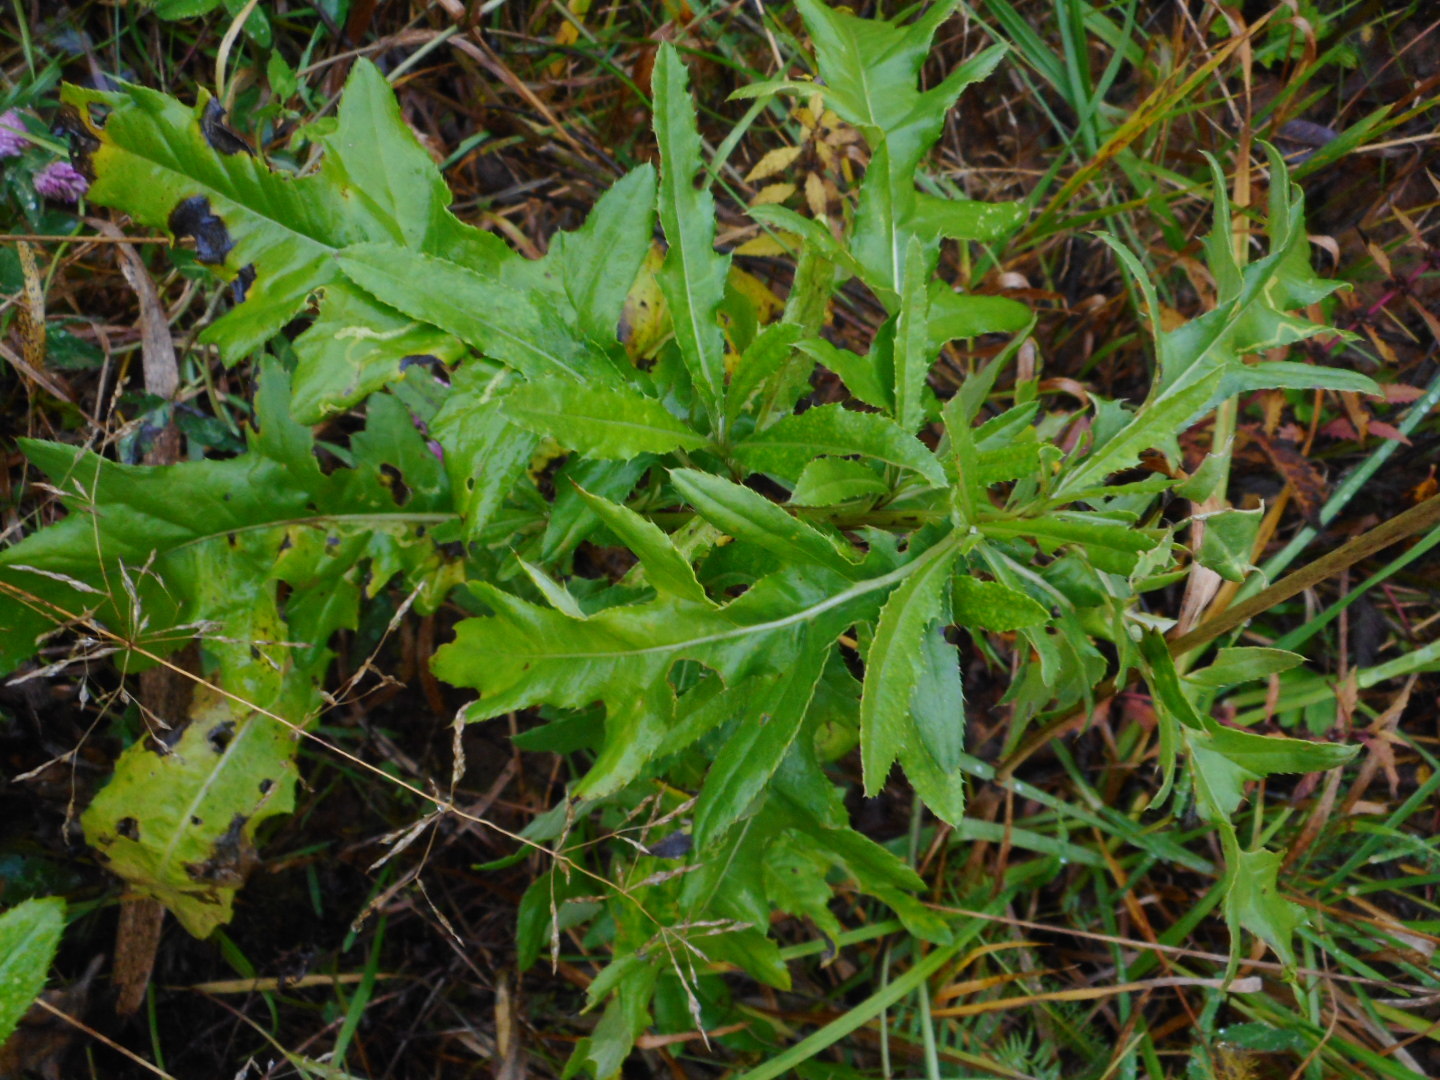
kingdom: Plantae
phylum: Tracheophyta
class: Magnoliopsida
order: Asterales
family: Asteraceae
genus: Cirsium
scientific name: Cirsium arvense
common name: Creeping thistle
